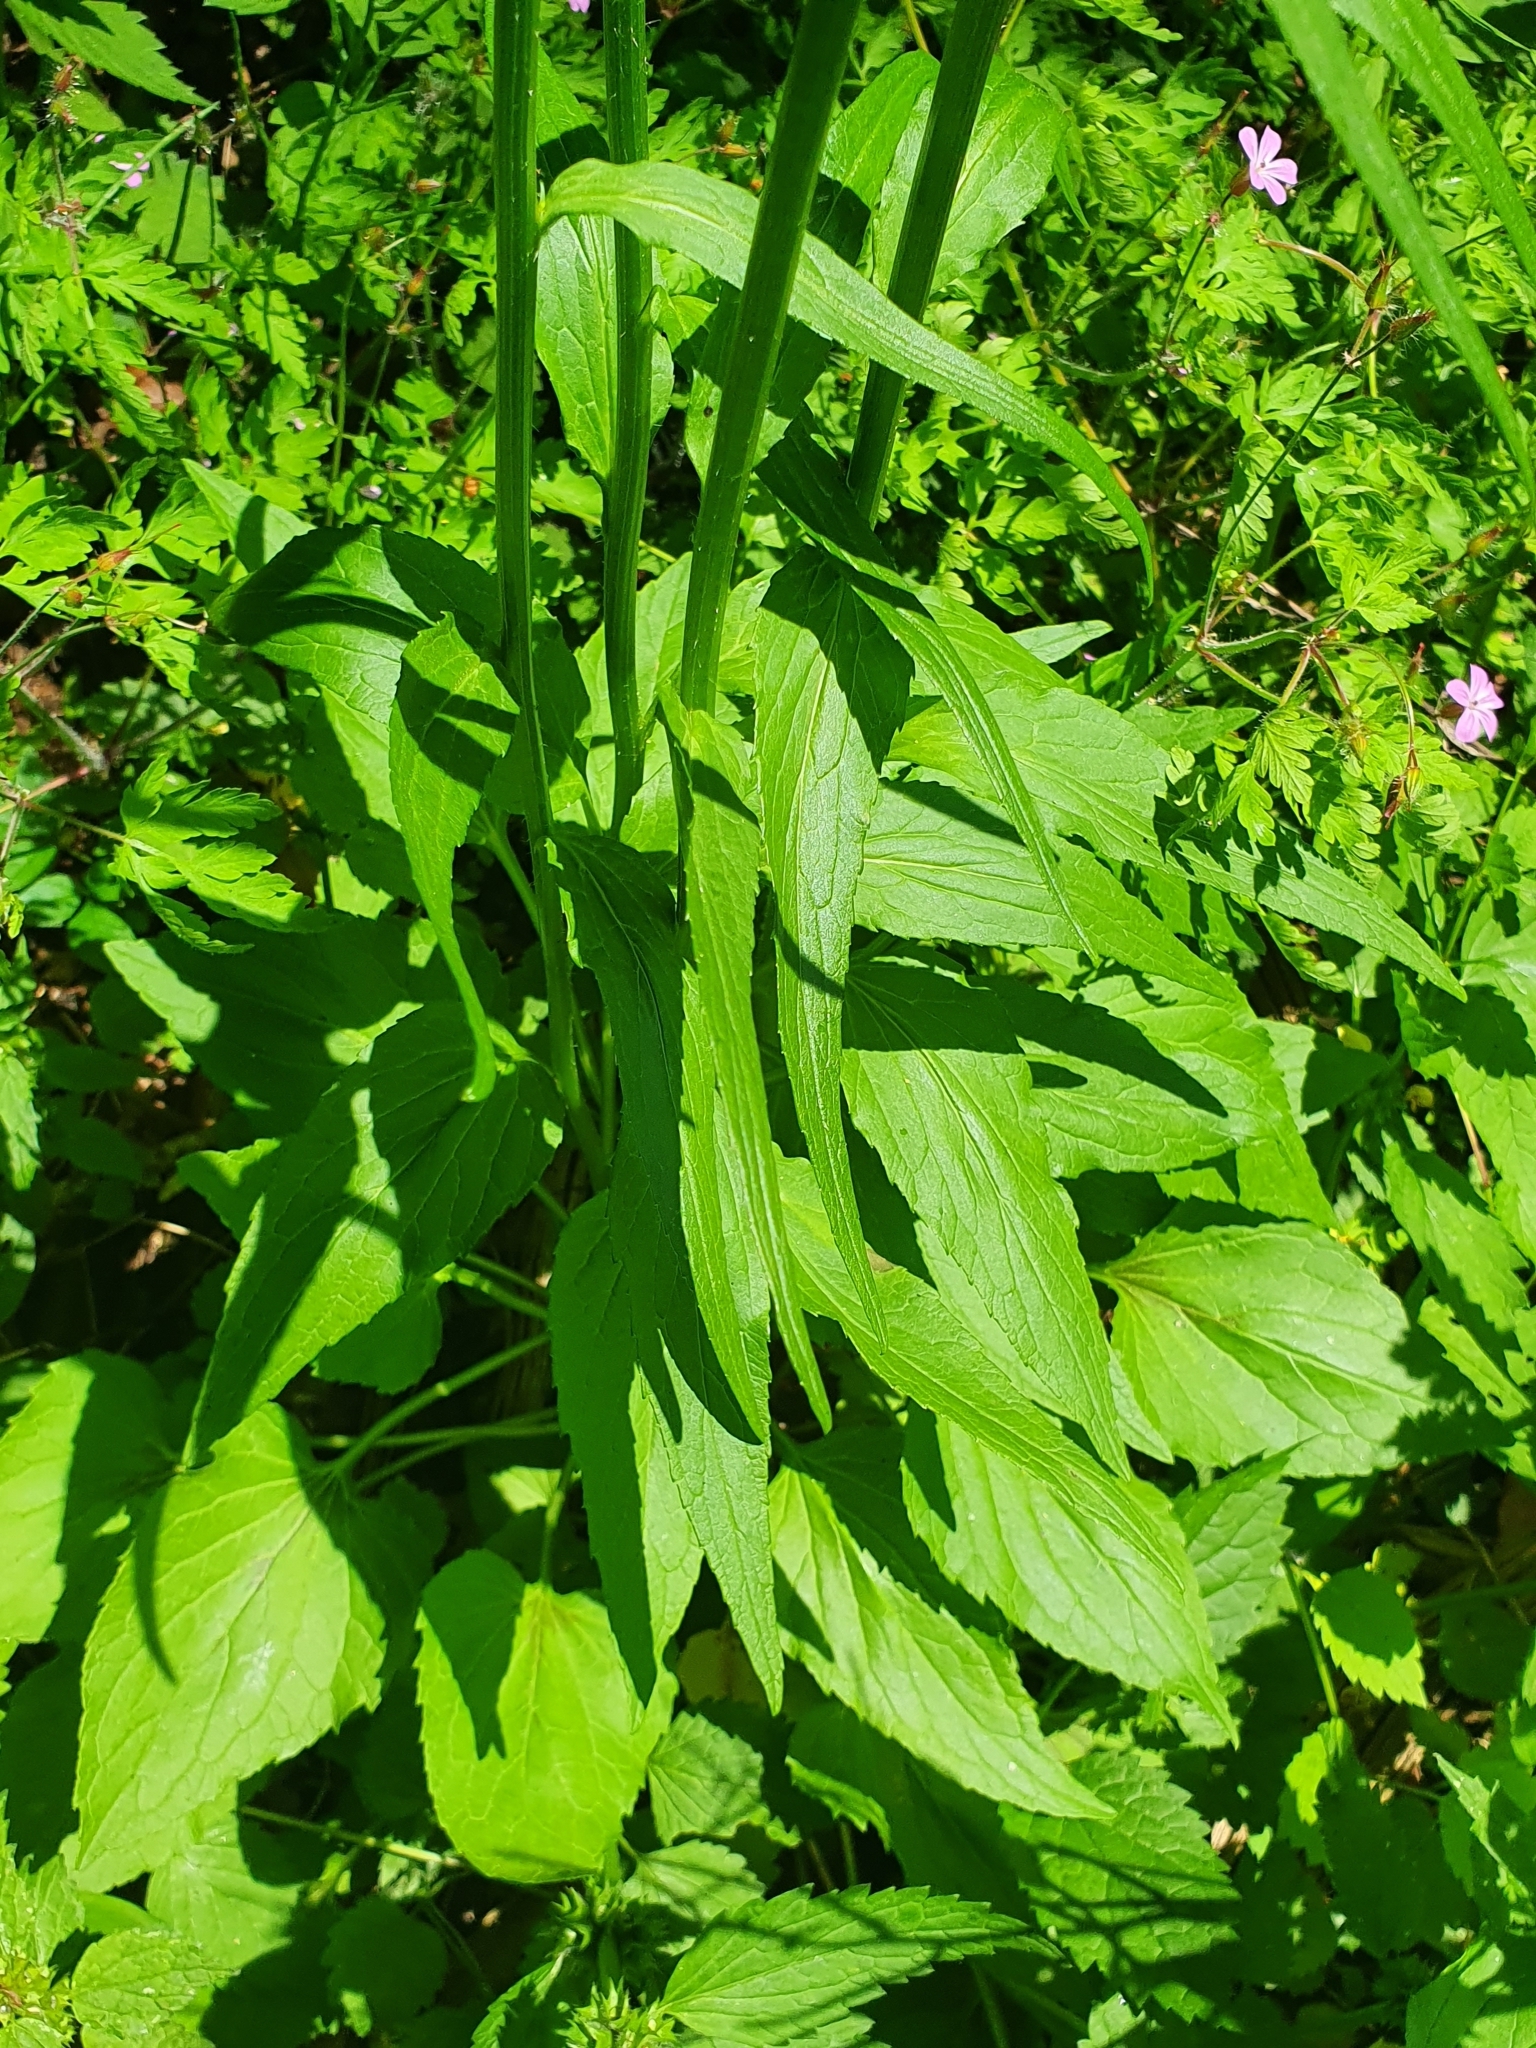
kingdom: Plantae
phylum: Tracheophyta
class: Magnoliopsida
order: Asterales
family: Campanulaceae
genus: Phyteuma
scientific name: Phyteuma spicatum
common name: Spiked rampion
